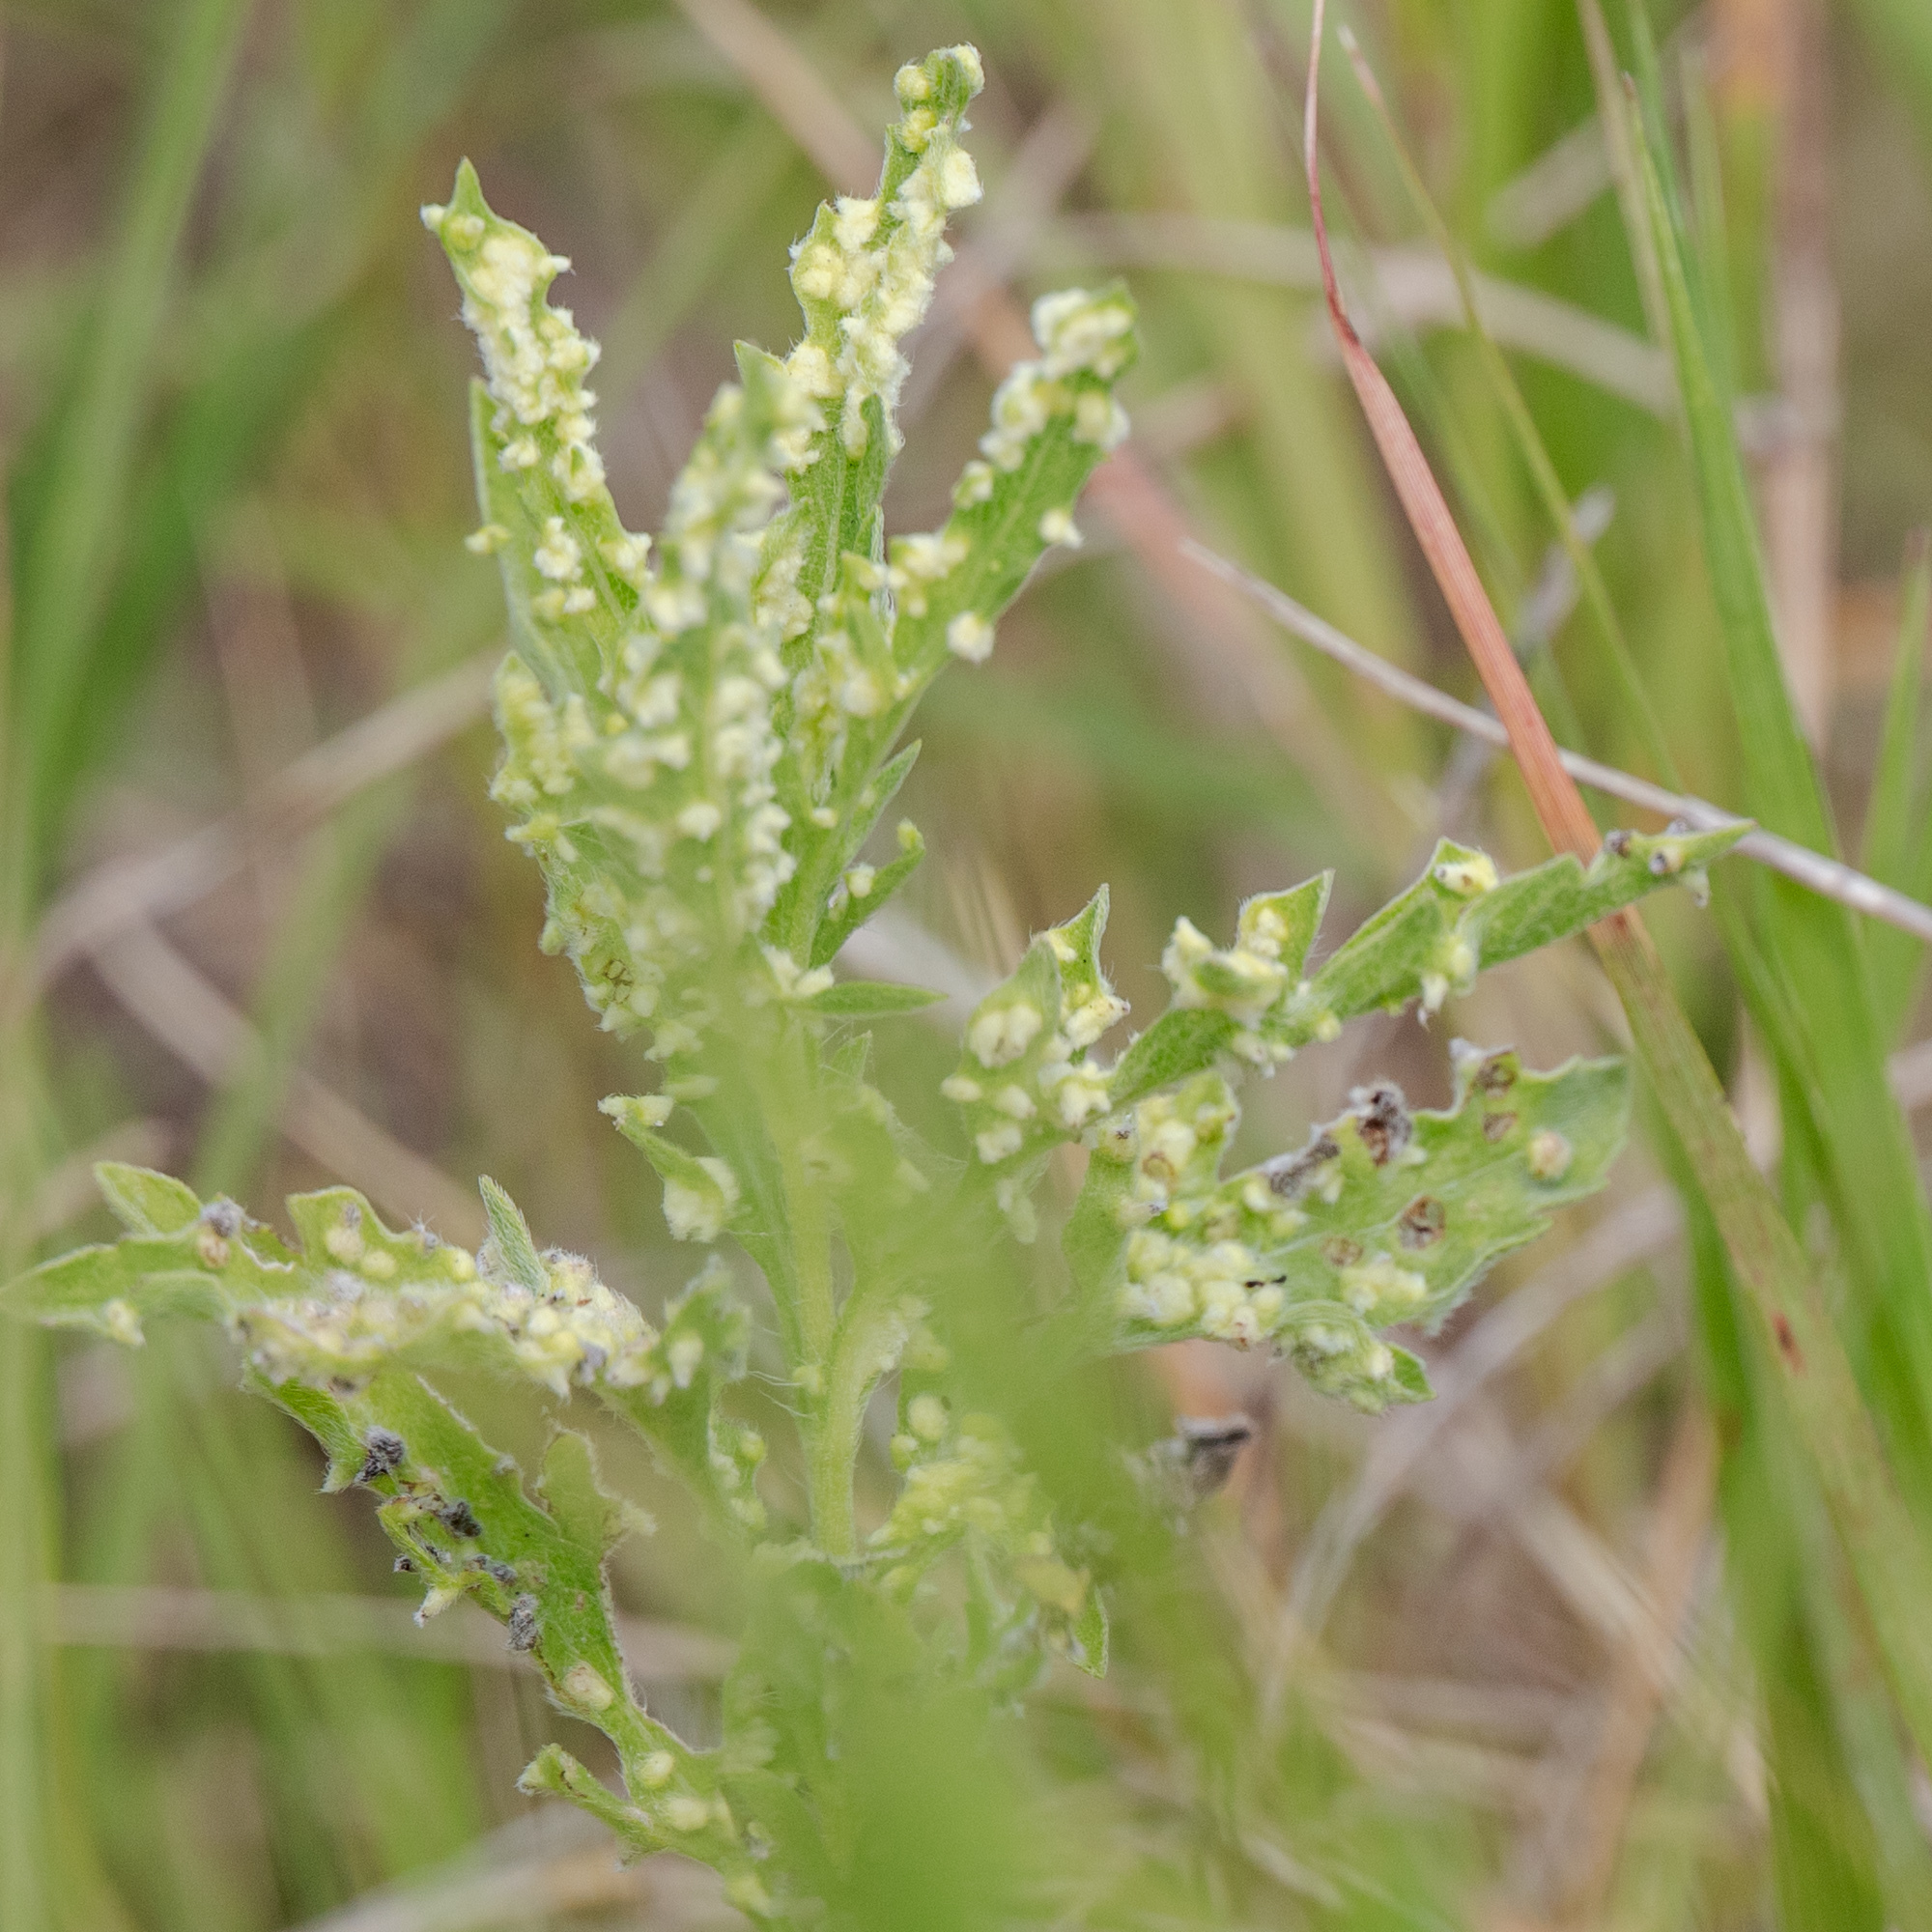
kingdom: Animalia
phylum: Arthropoda
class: Arachnida
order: Trombidiformes
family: Eriophyidae
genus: Aceria
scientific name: Aceria
